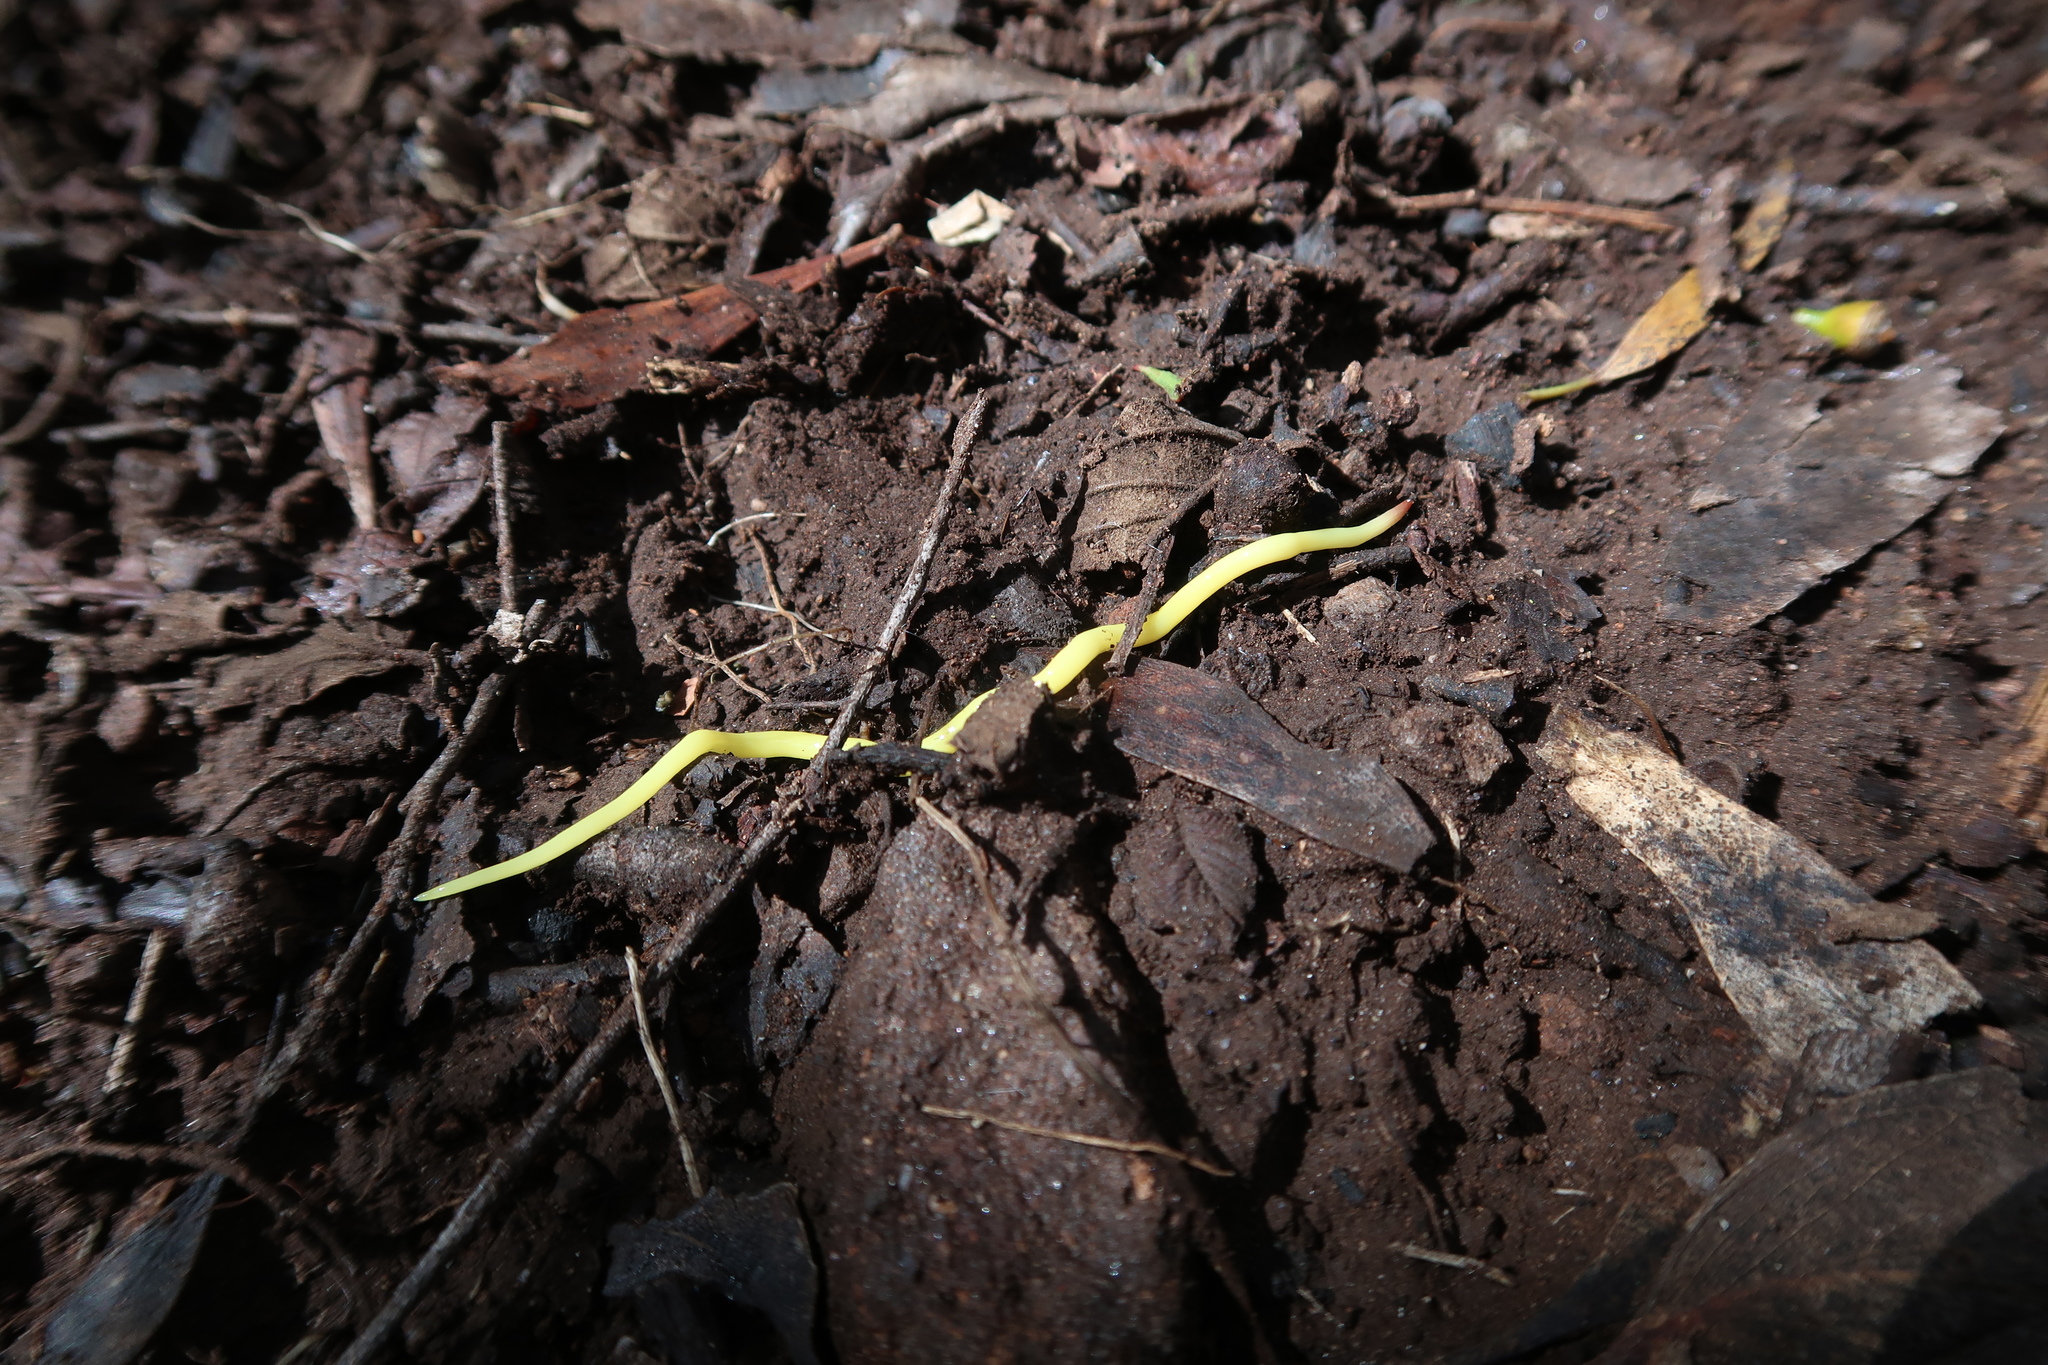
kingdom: Animalia
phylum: Platyhelminthes
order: Tricladida
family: Geoplanidae
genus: Fletchamia
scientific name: Fletchamia sugdeni
